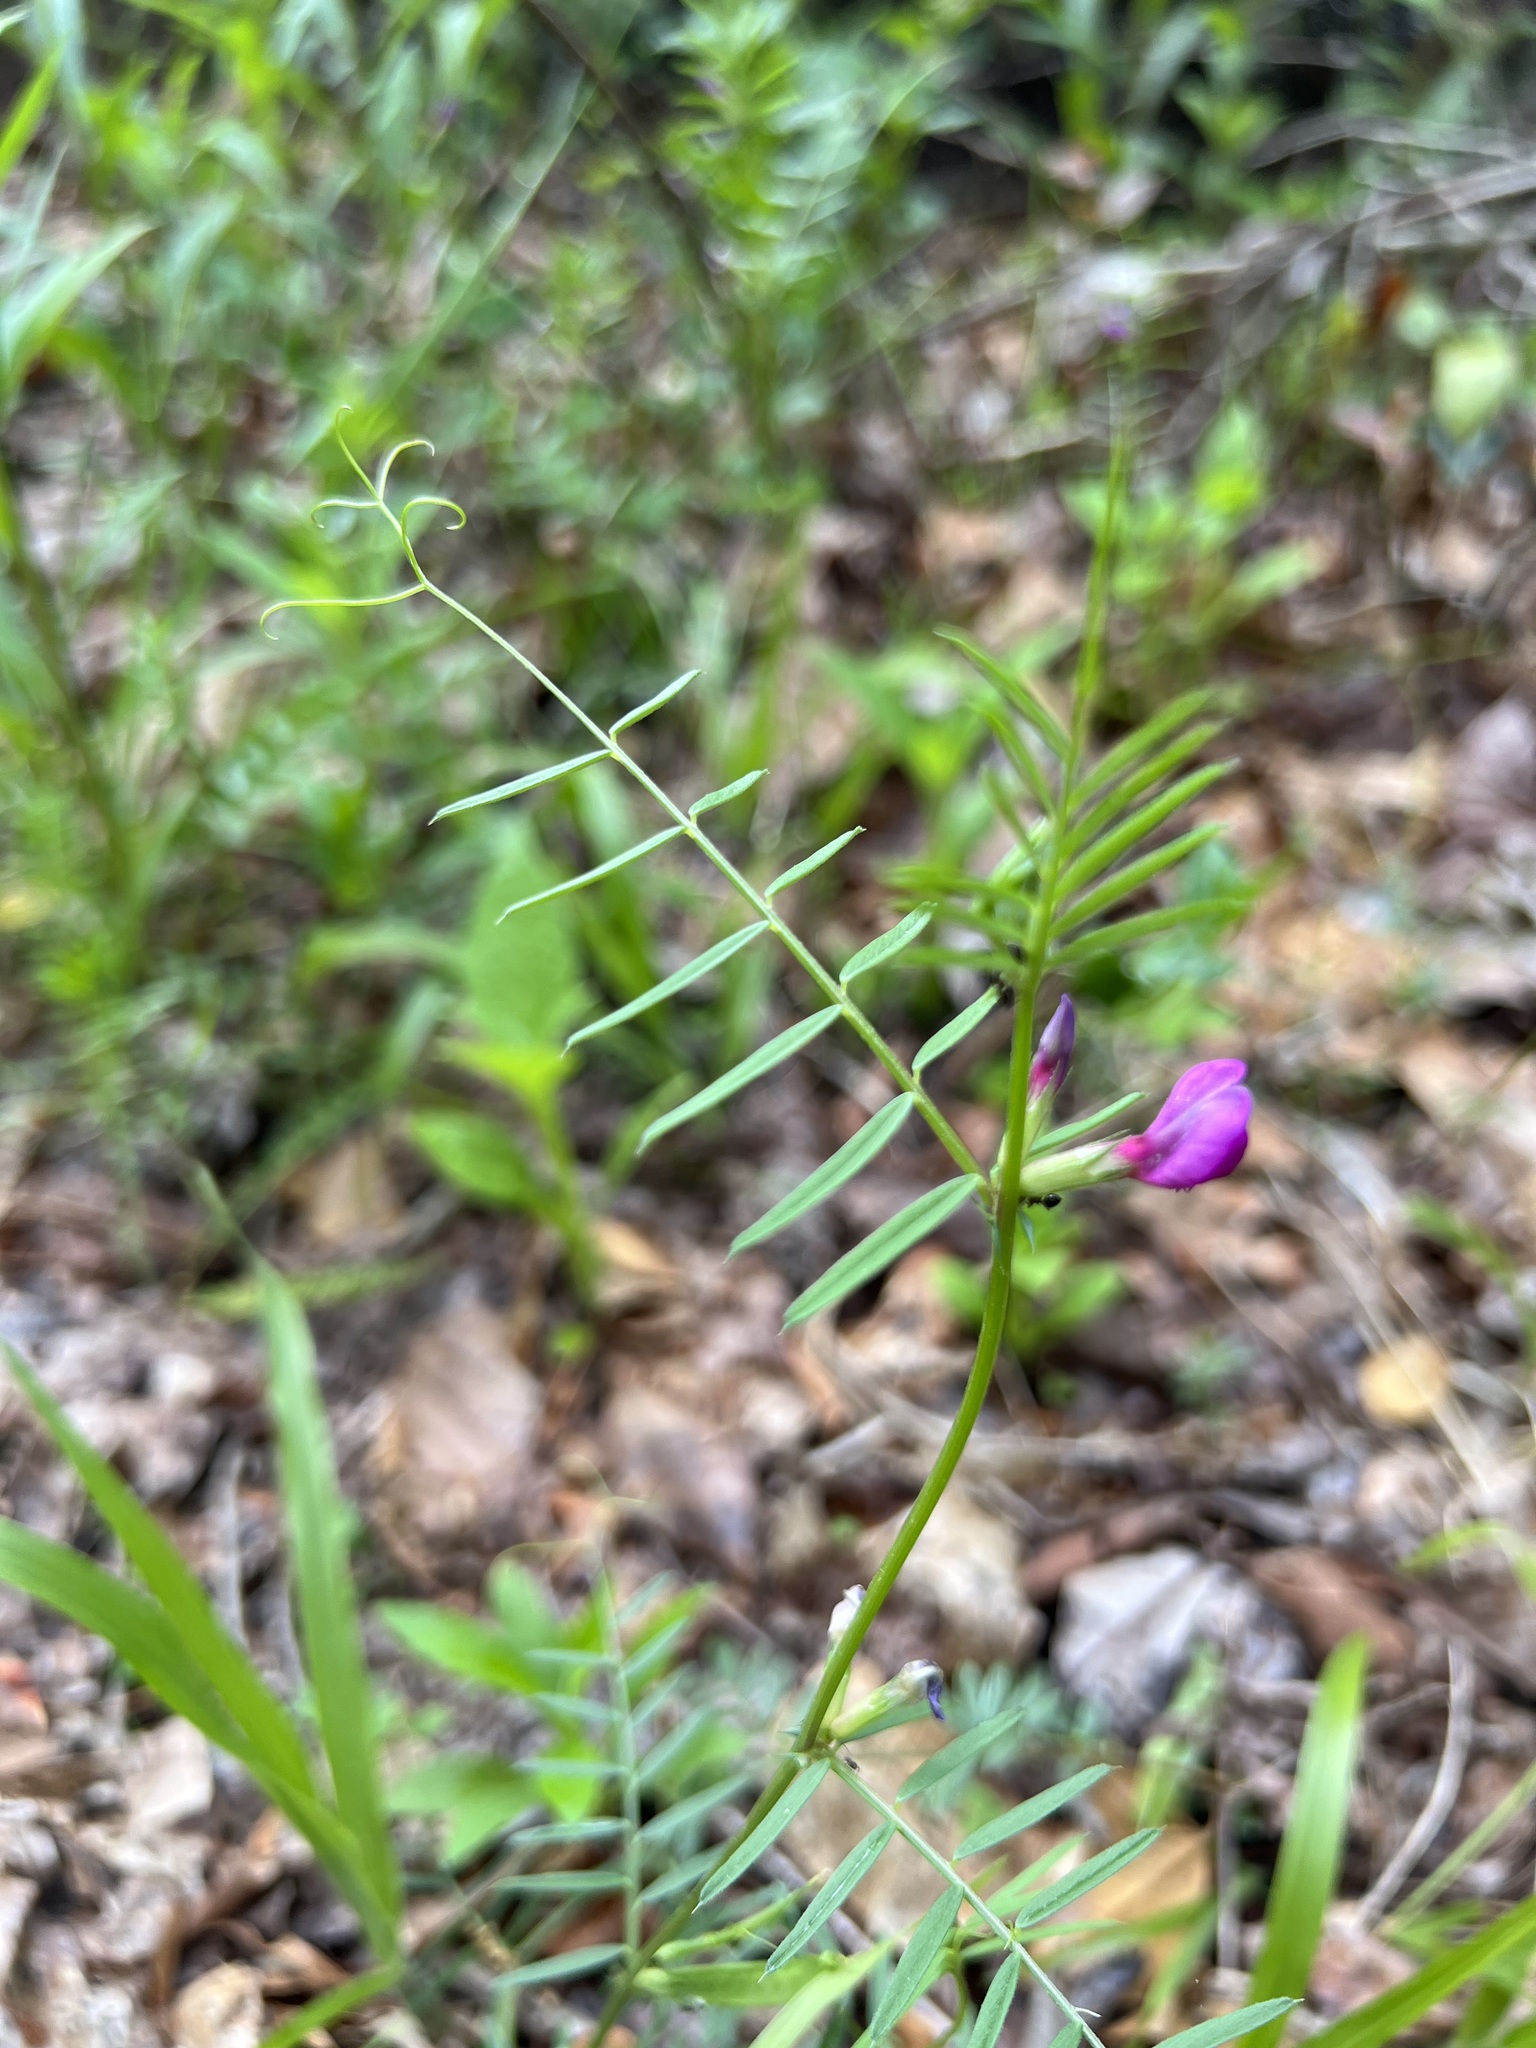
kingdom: Plantae
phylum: Tracheophyta
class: Magnoliopsida
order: Fabales
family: Fabaceae
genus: Vicia
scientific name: Vicia sativa
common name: Garden vetch
